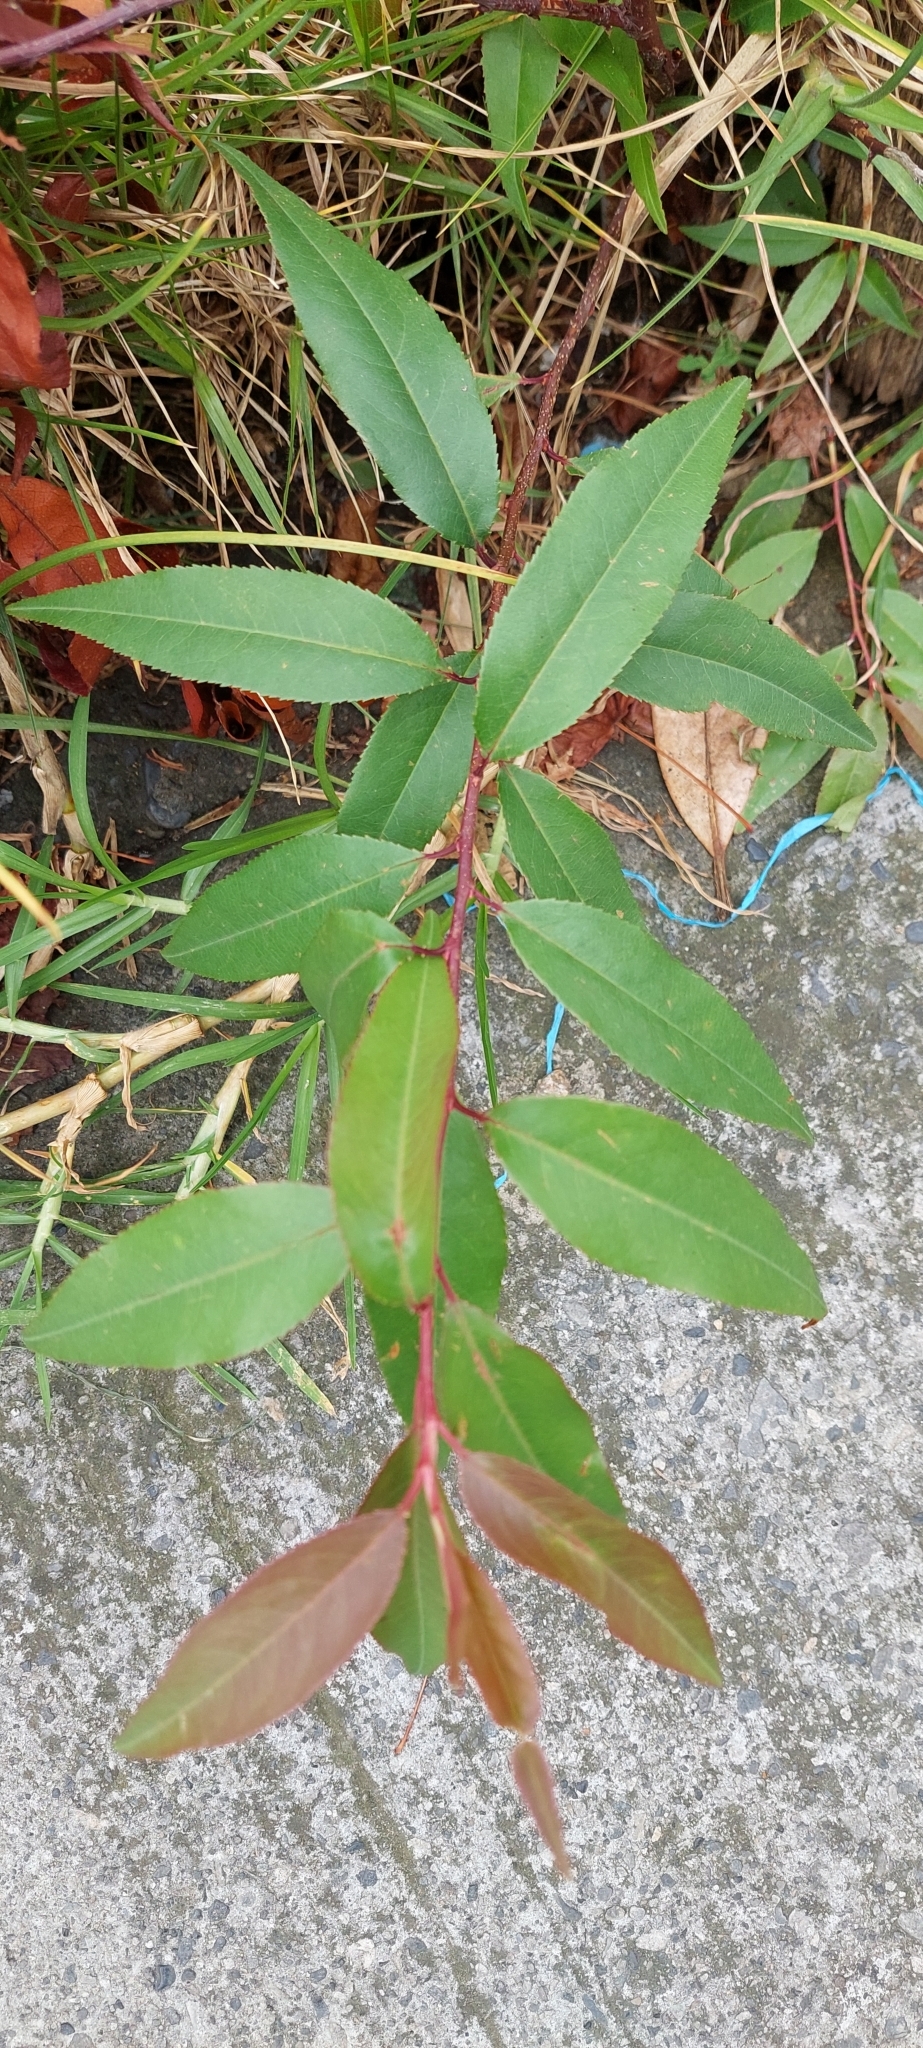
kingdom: Plantae
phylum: Tracheophyta
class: Magnoliopsida
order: Rosales
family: Rosaceae
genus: Prunus
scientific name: Prunus serotina
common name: Black cherry
